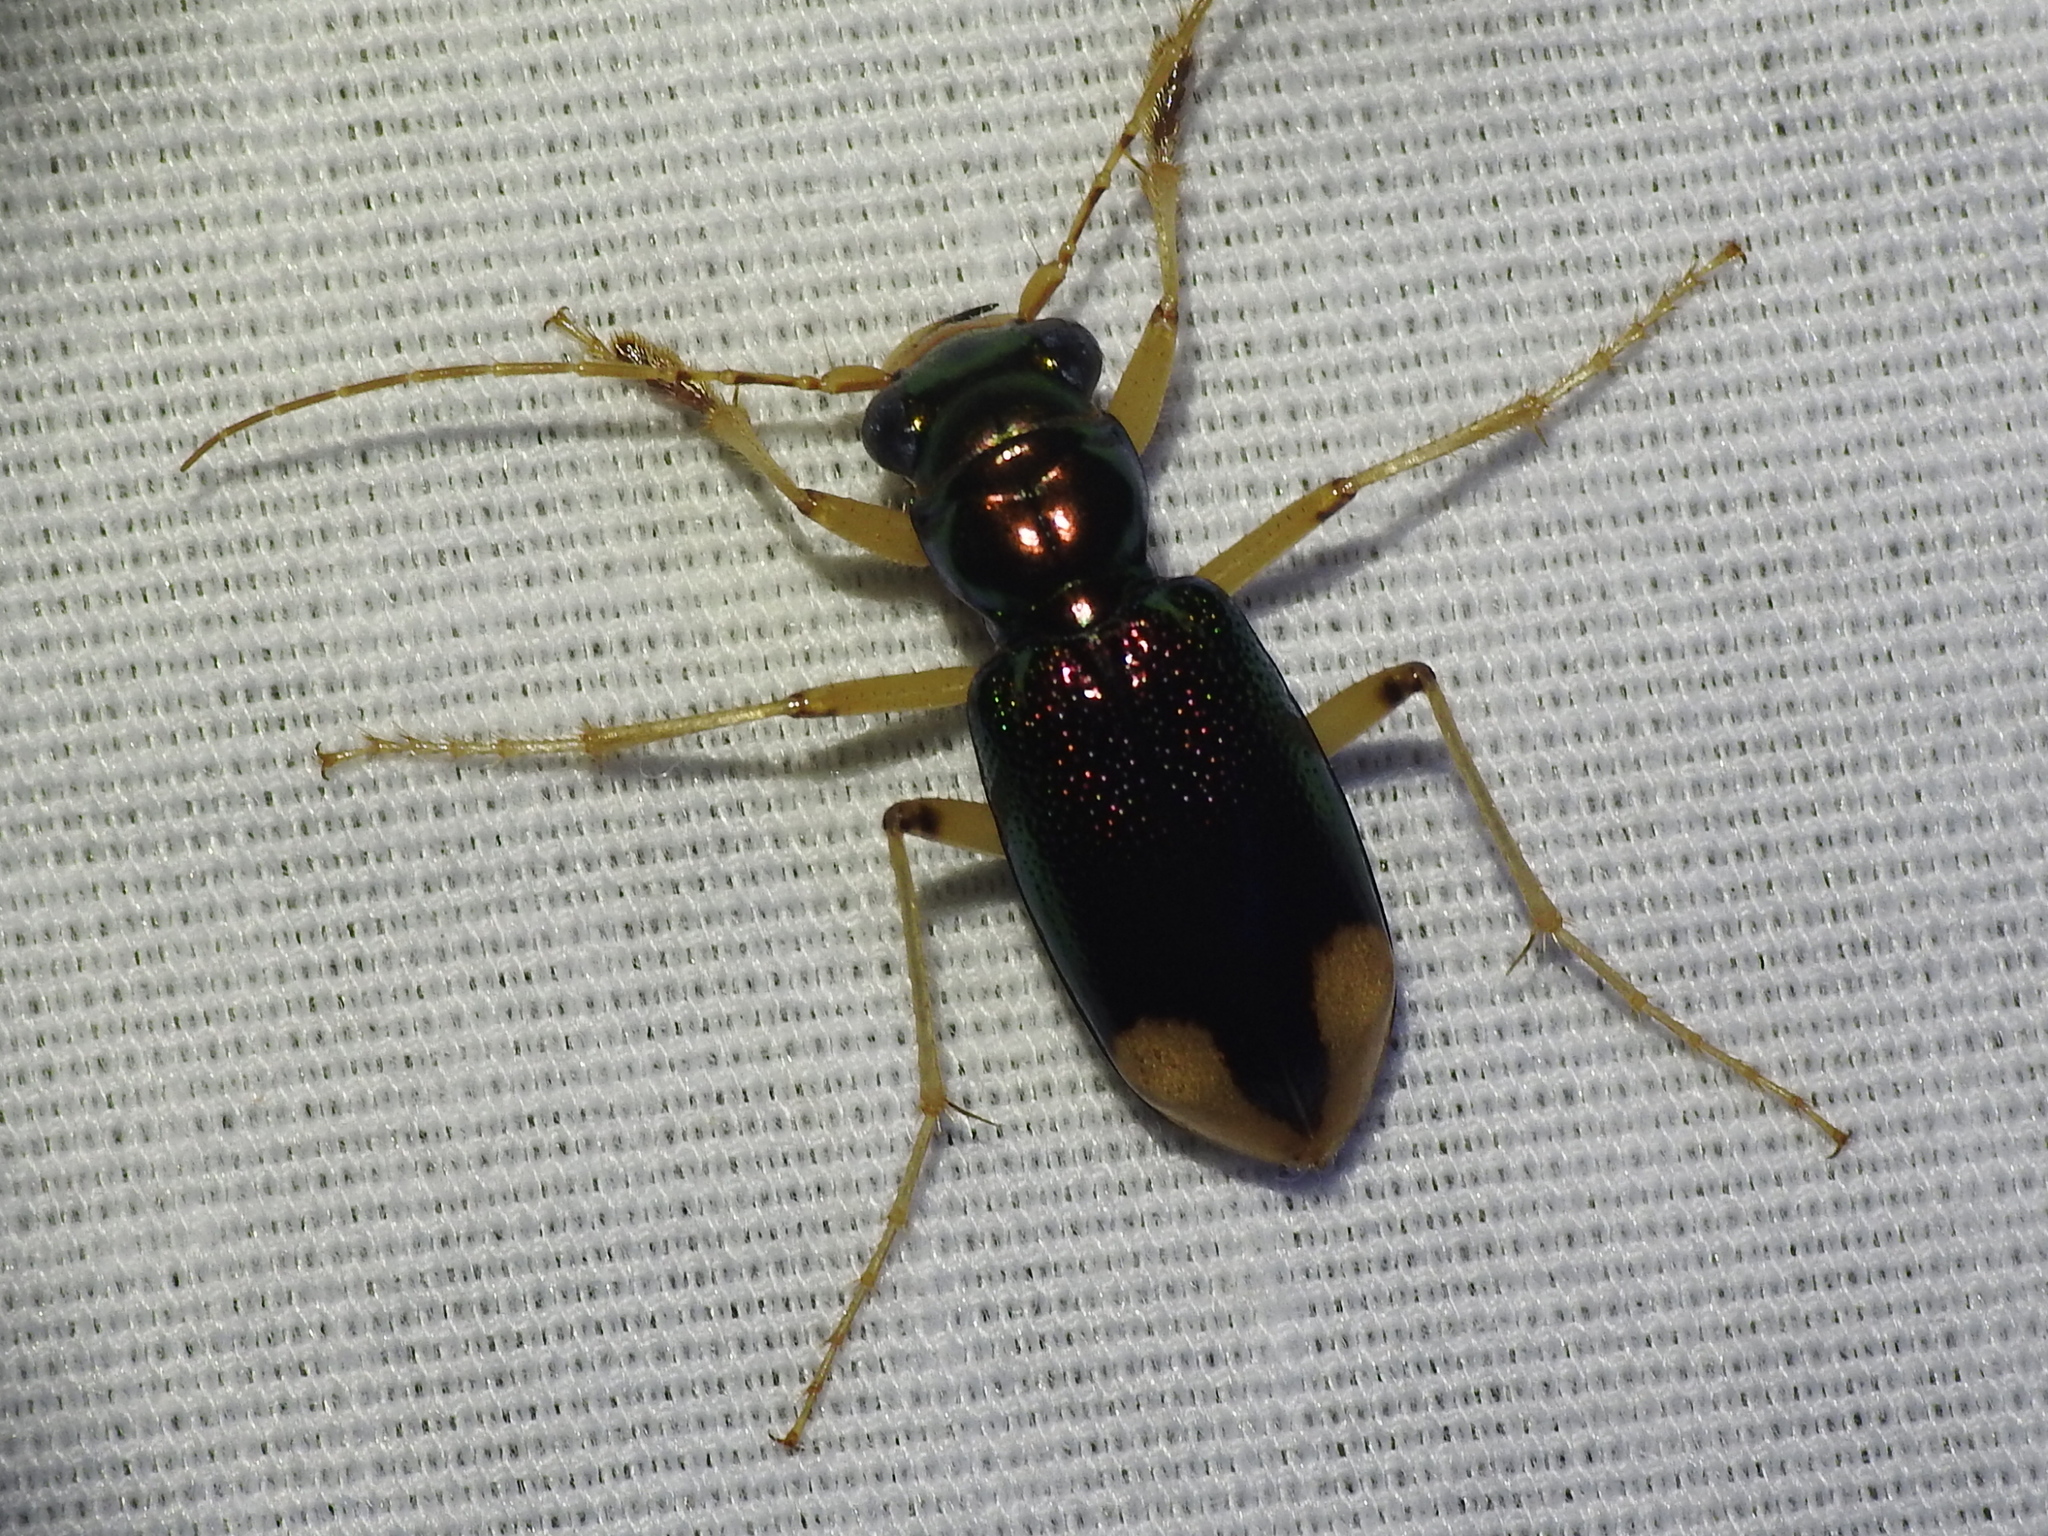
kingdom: Animalia
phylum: Arthropoda
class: Insecta
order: Coleoptera
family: Carabidae
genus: Tetracha
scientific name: Tetracha impressa
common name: Upland metallic tiger beetle
